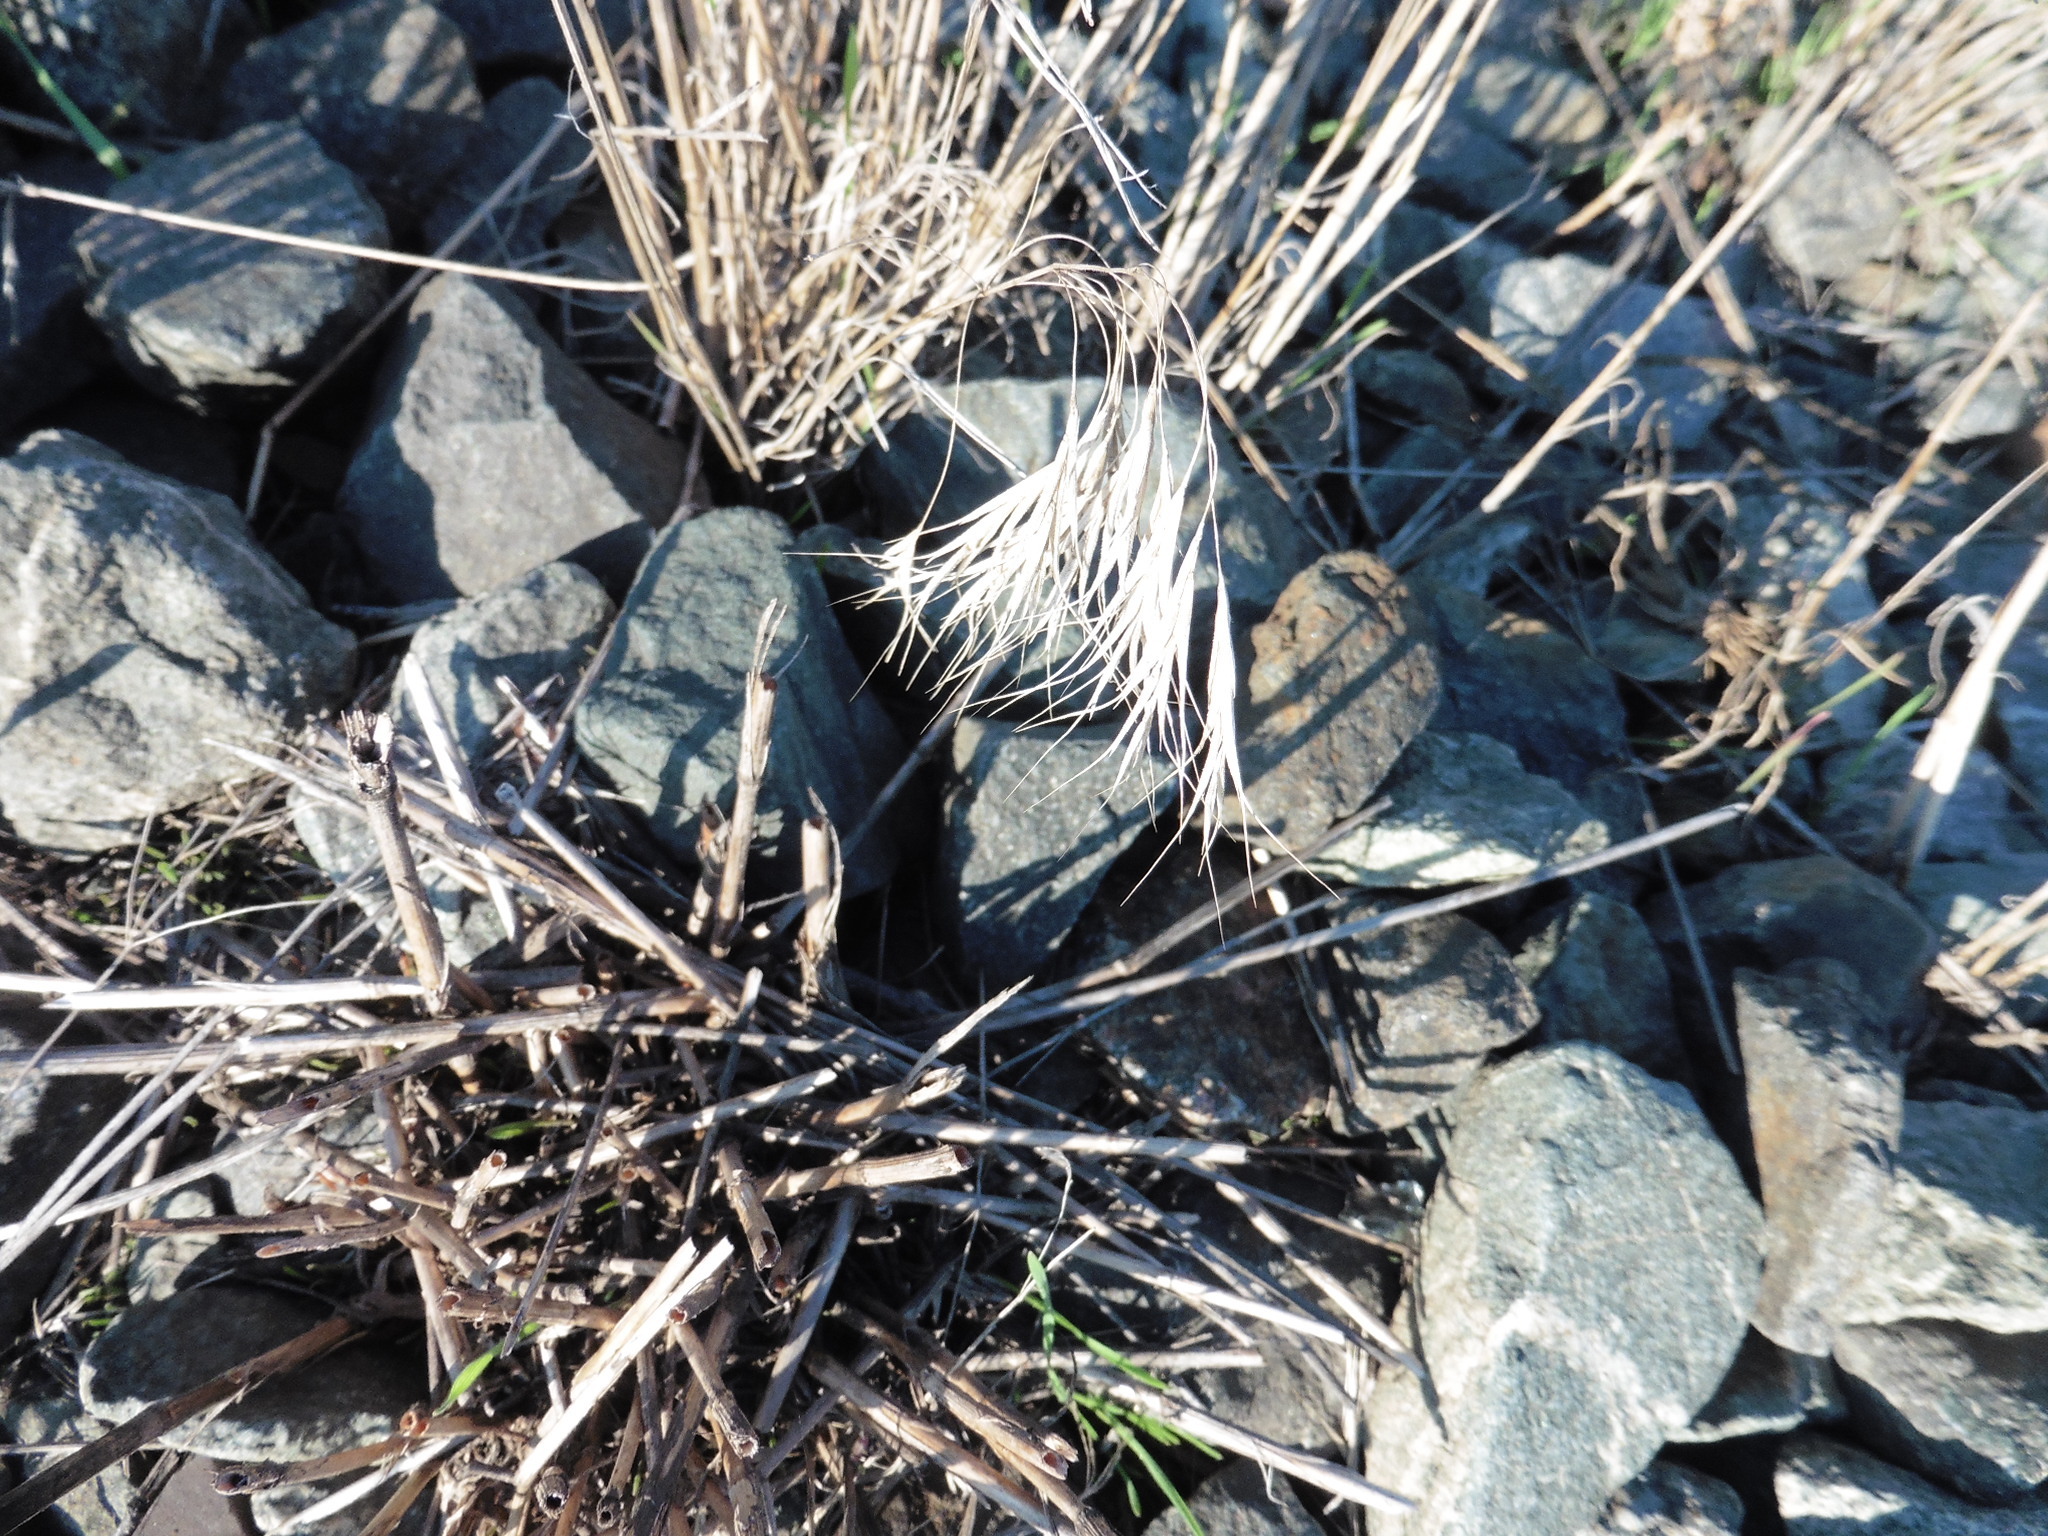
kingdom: Plantae
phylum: Tracheophyta
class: Liliopsida
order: Poales
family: Poaceae
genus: Bromus
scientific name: Bromus tectorum
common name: Cheatgrass
